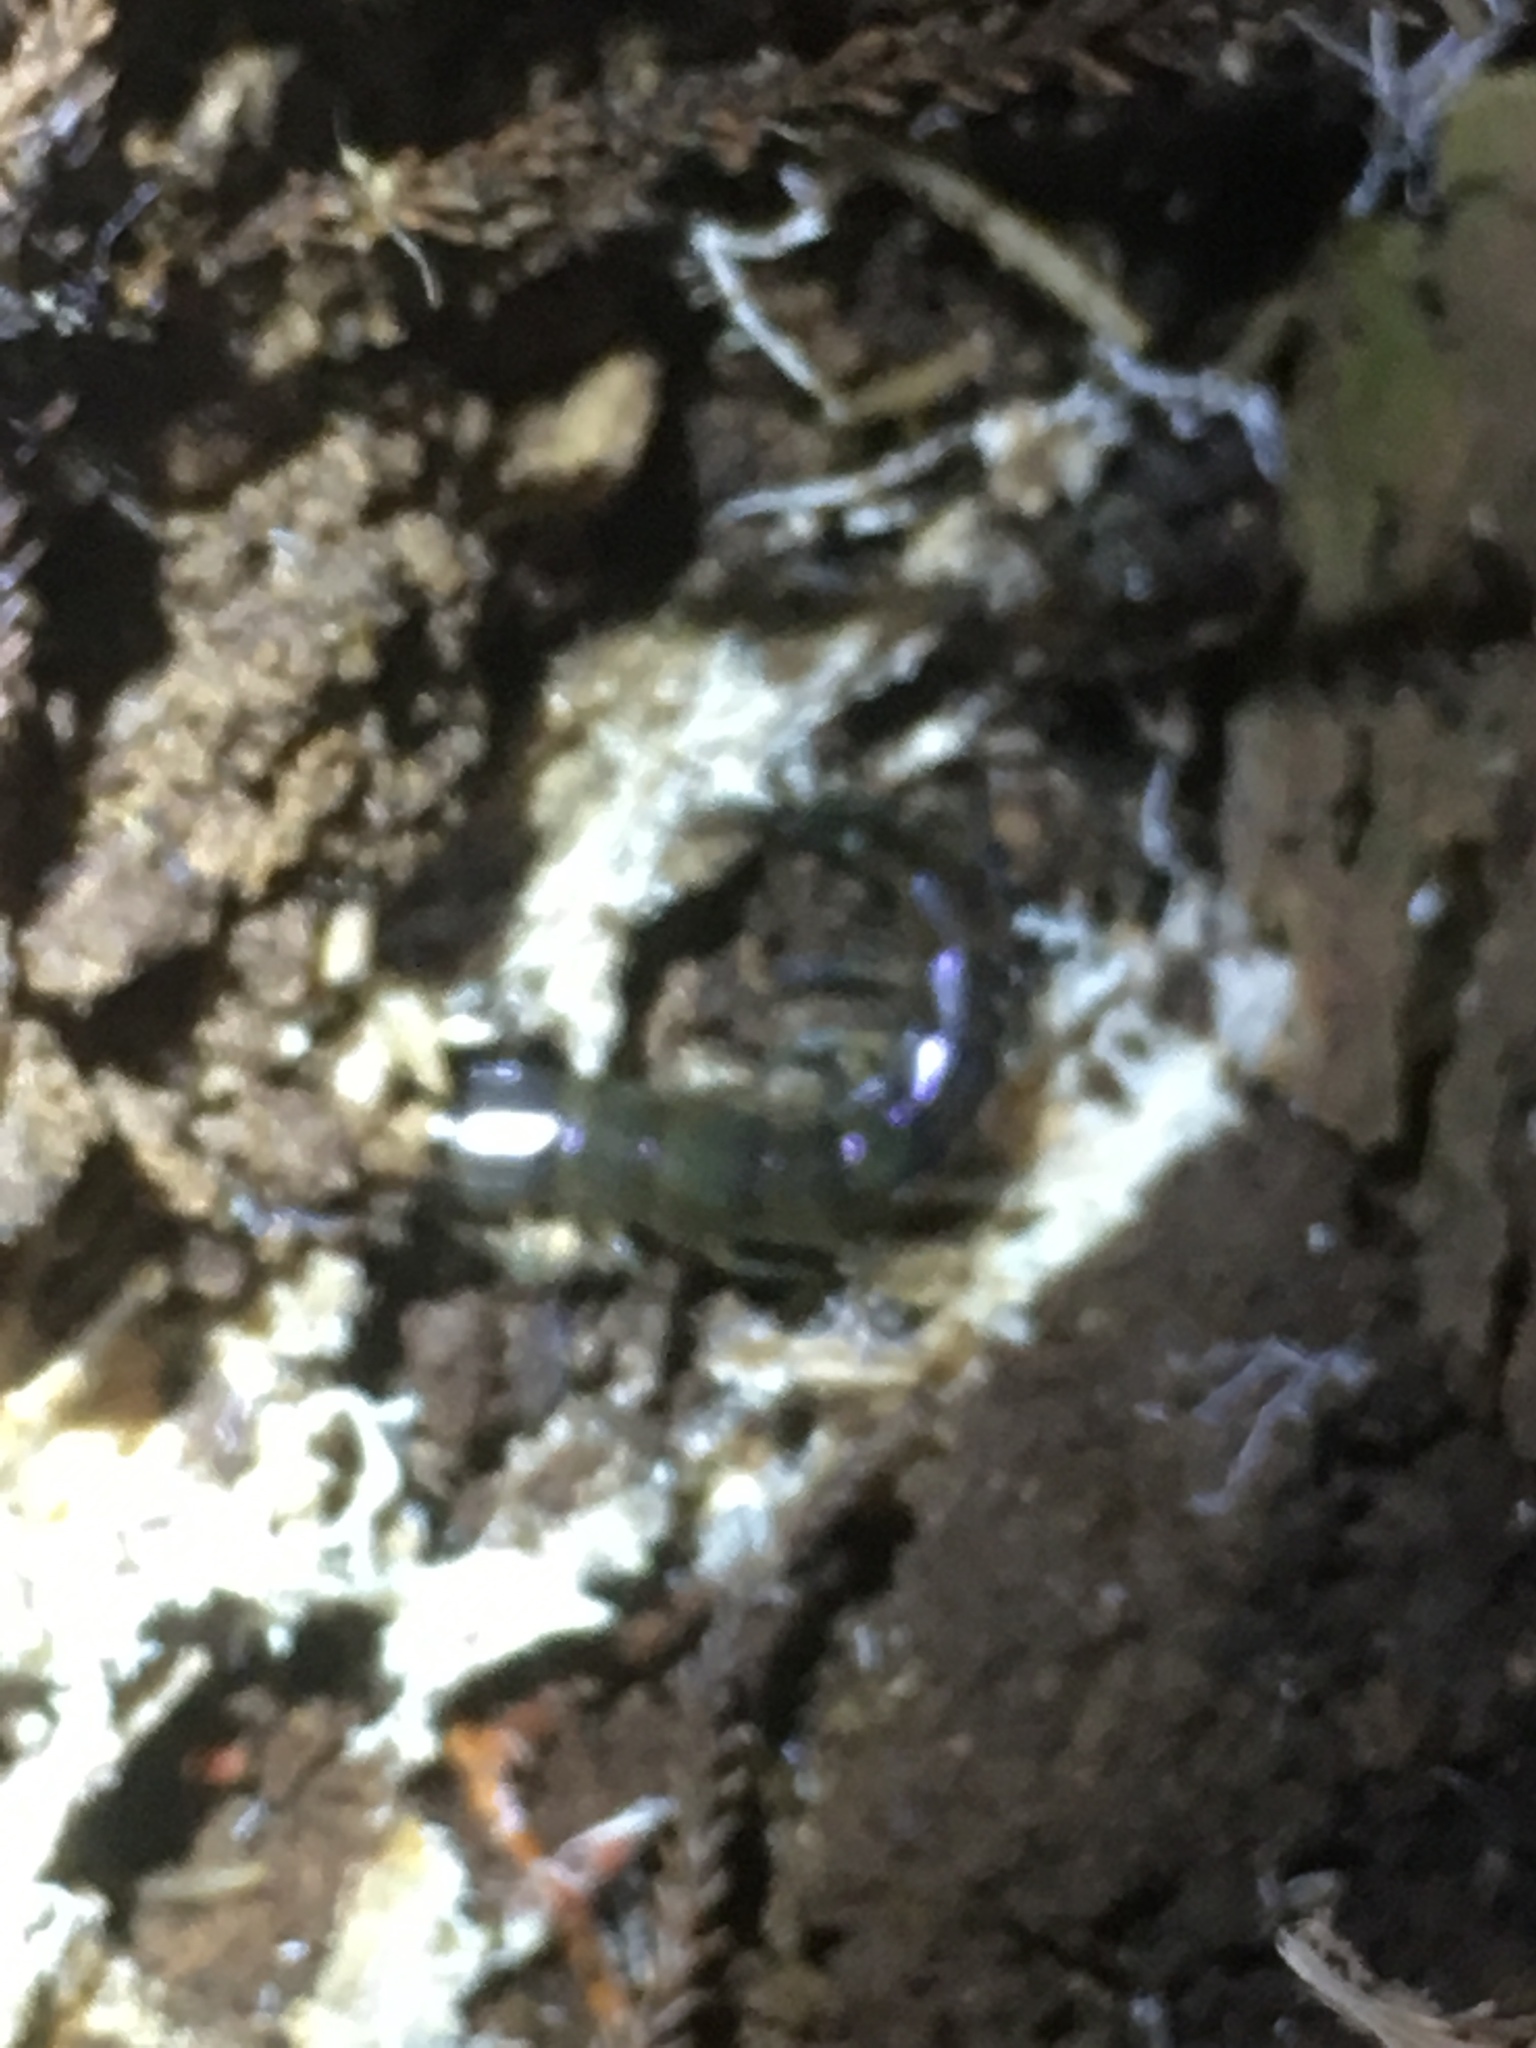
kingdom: Animalia
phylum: Arthropoda
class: Chilopoda
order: Scolopendromorpha
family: Scolopendridae
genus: Cormocephalus
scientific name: Cormocephalus rubriceps
